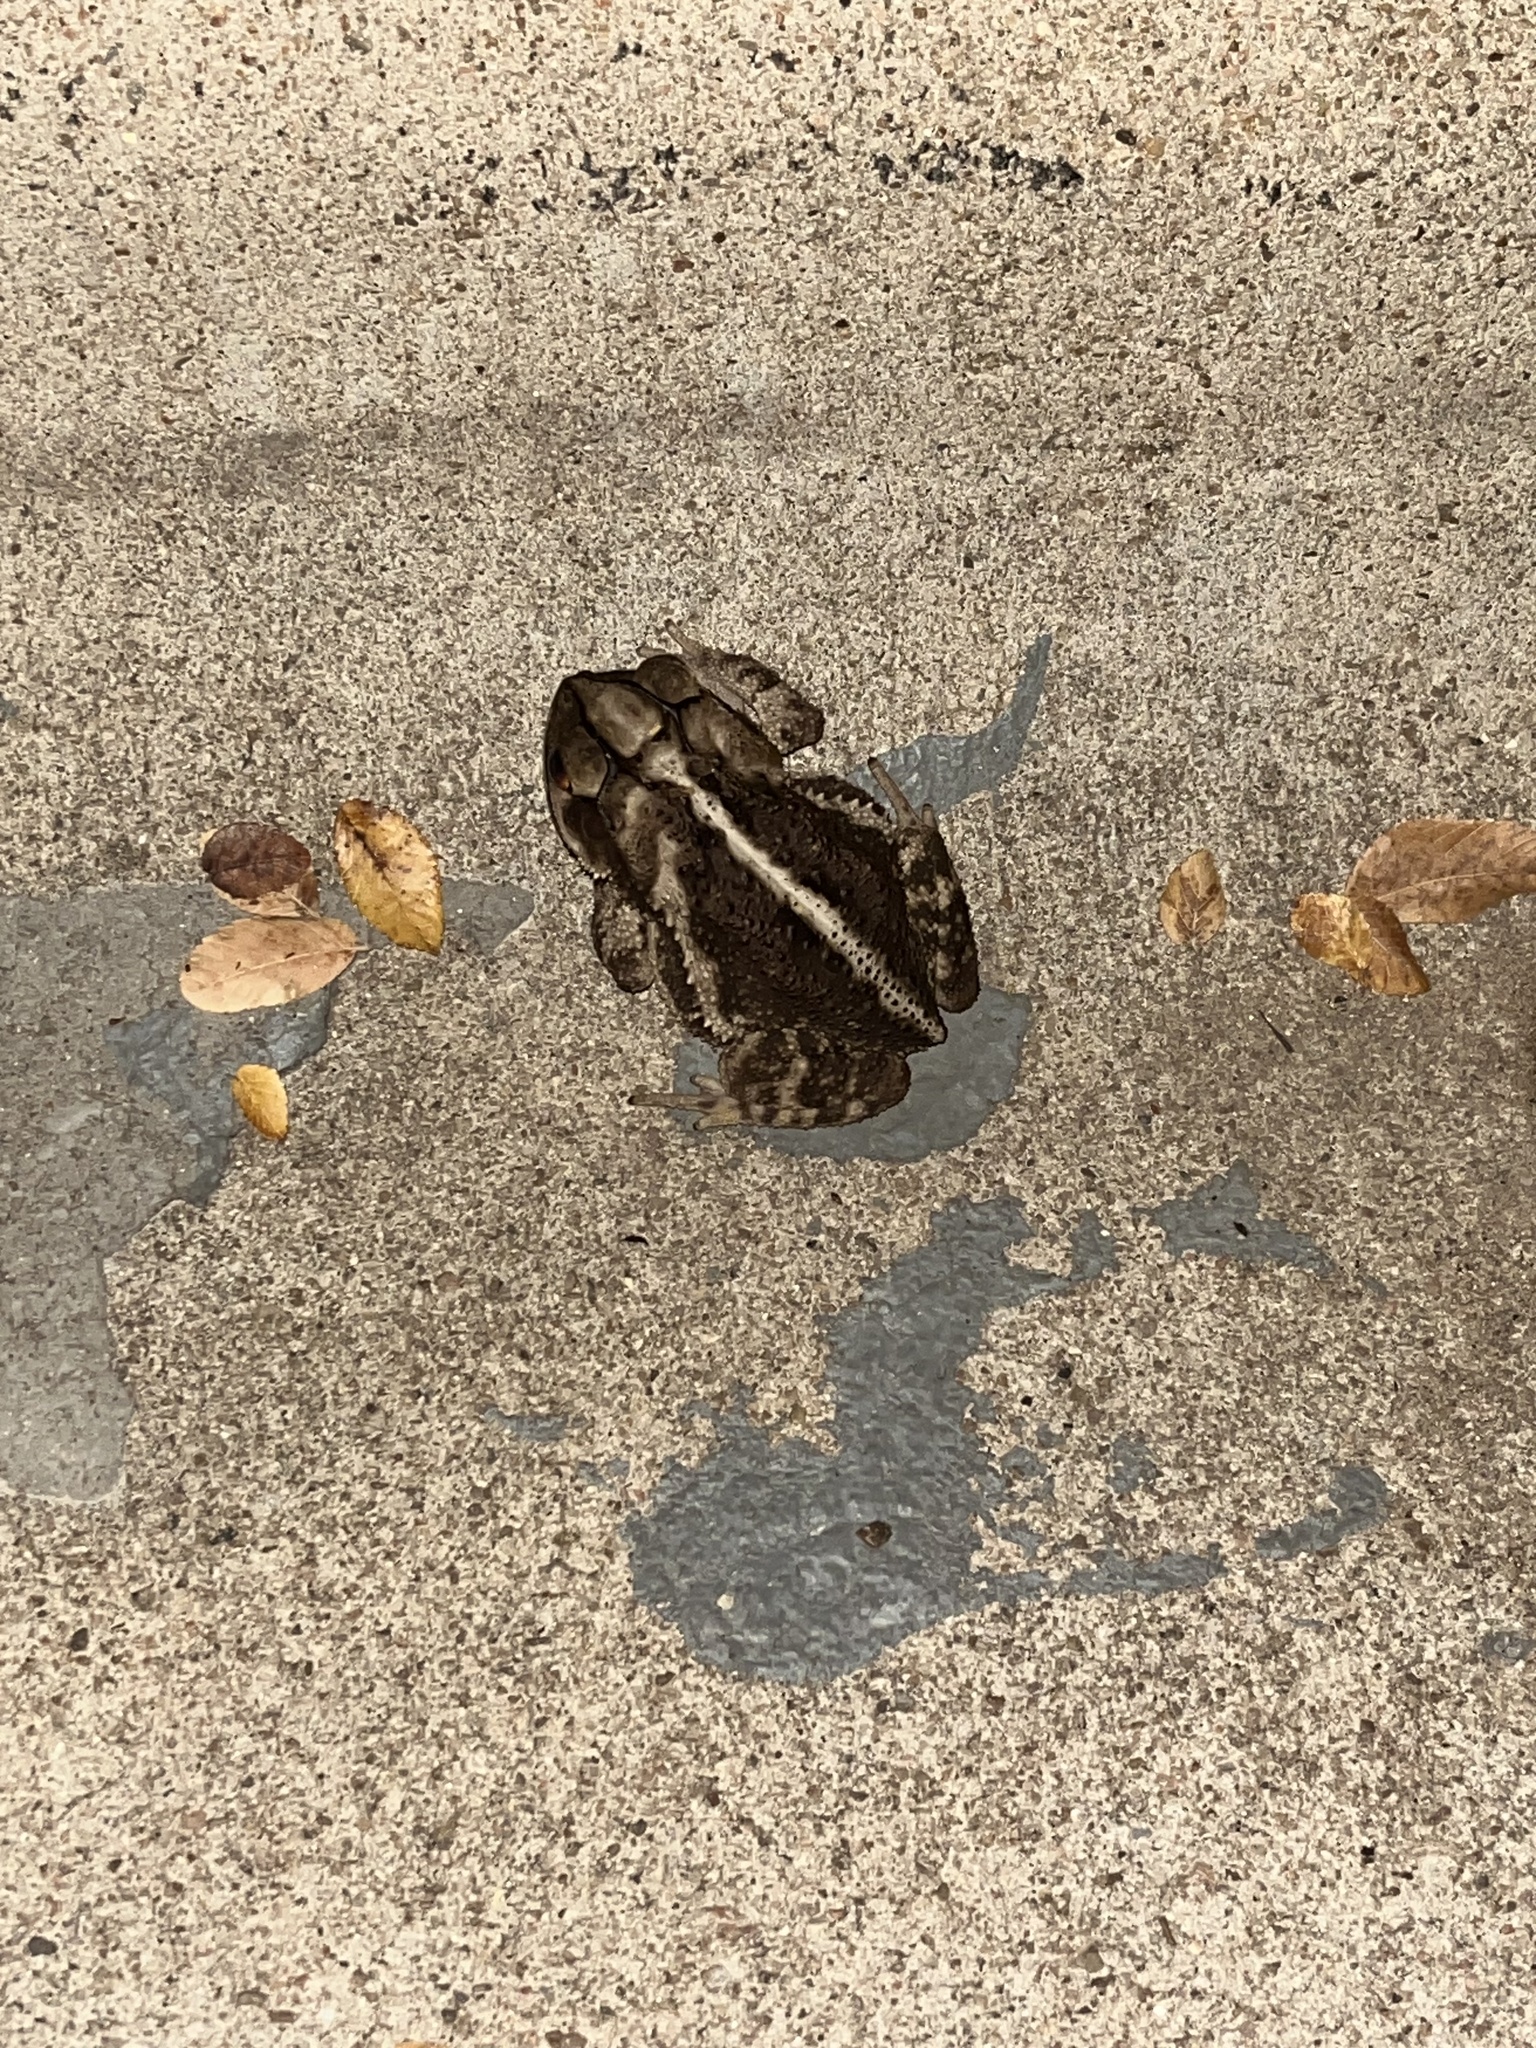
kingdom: Animalia
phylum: Chordata
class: Amphibia
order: Anura
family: Bufonidae
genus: Incilius
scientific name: Incilius nebulifer
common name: Gulf coast toad
